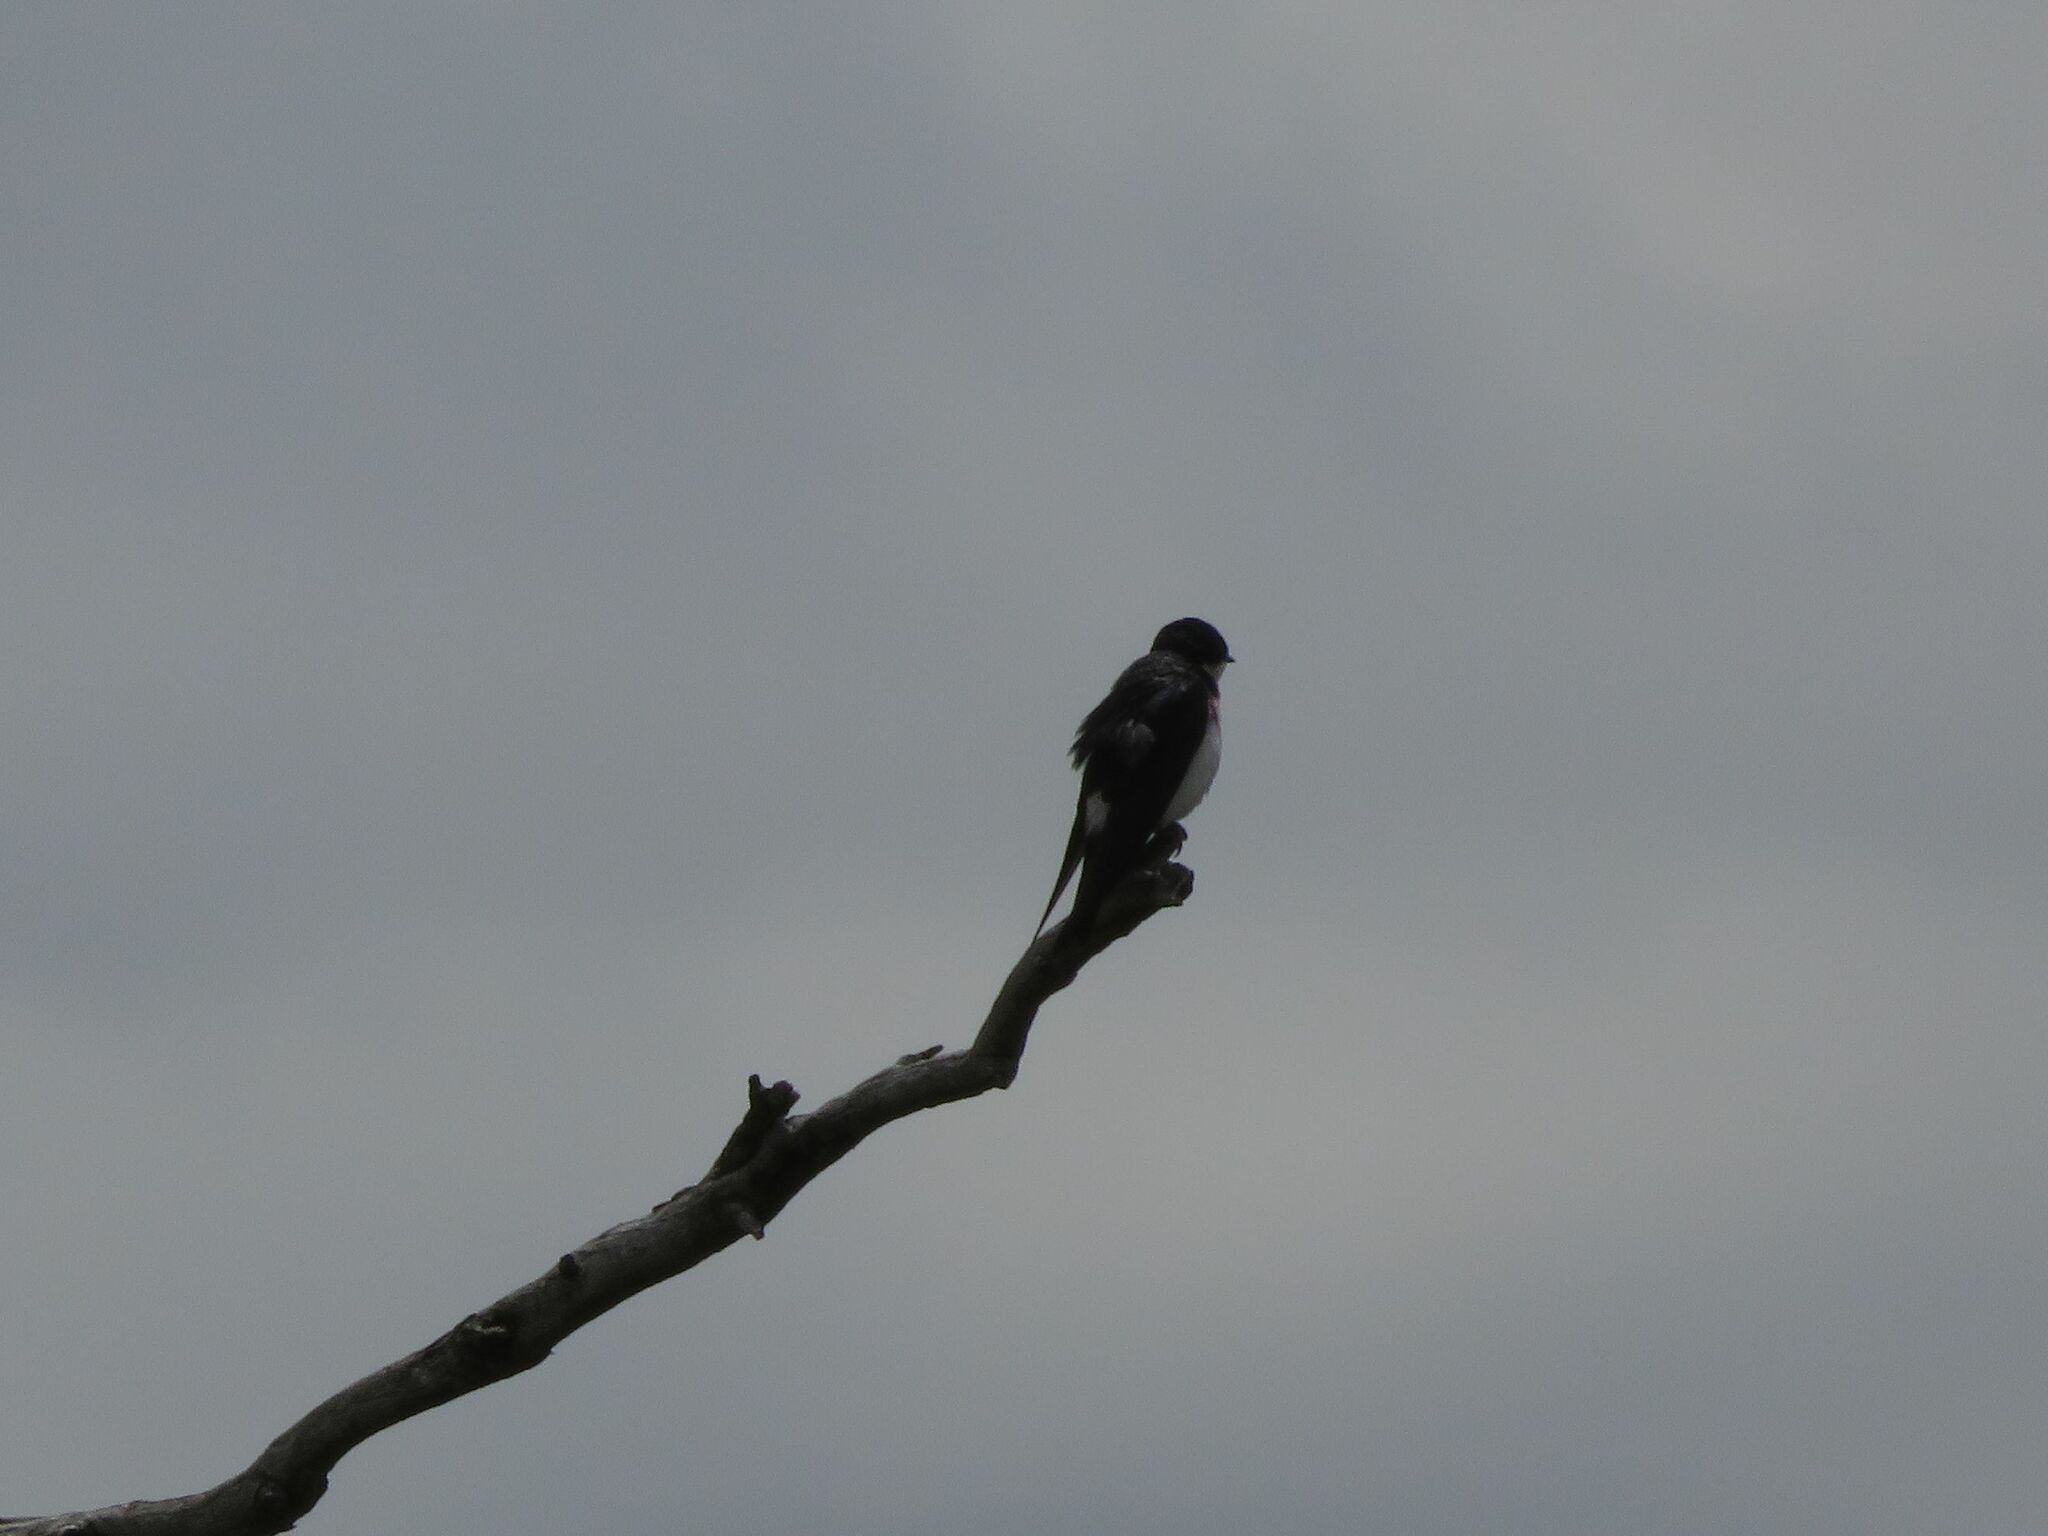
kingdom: Animalia
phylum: Chordata
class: Aves
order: Passeriformes
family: Hirundinidae
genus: Tachycineta
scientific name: Tachycineta leucopyga
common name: Chilean swallow
